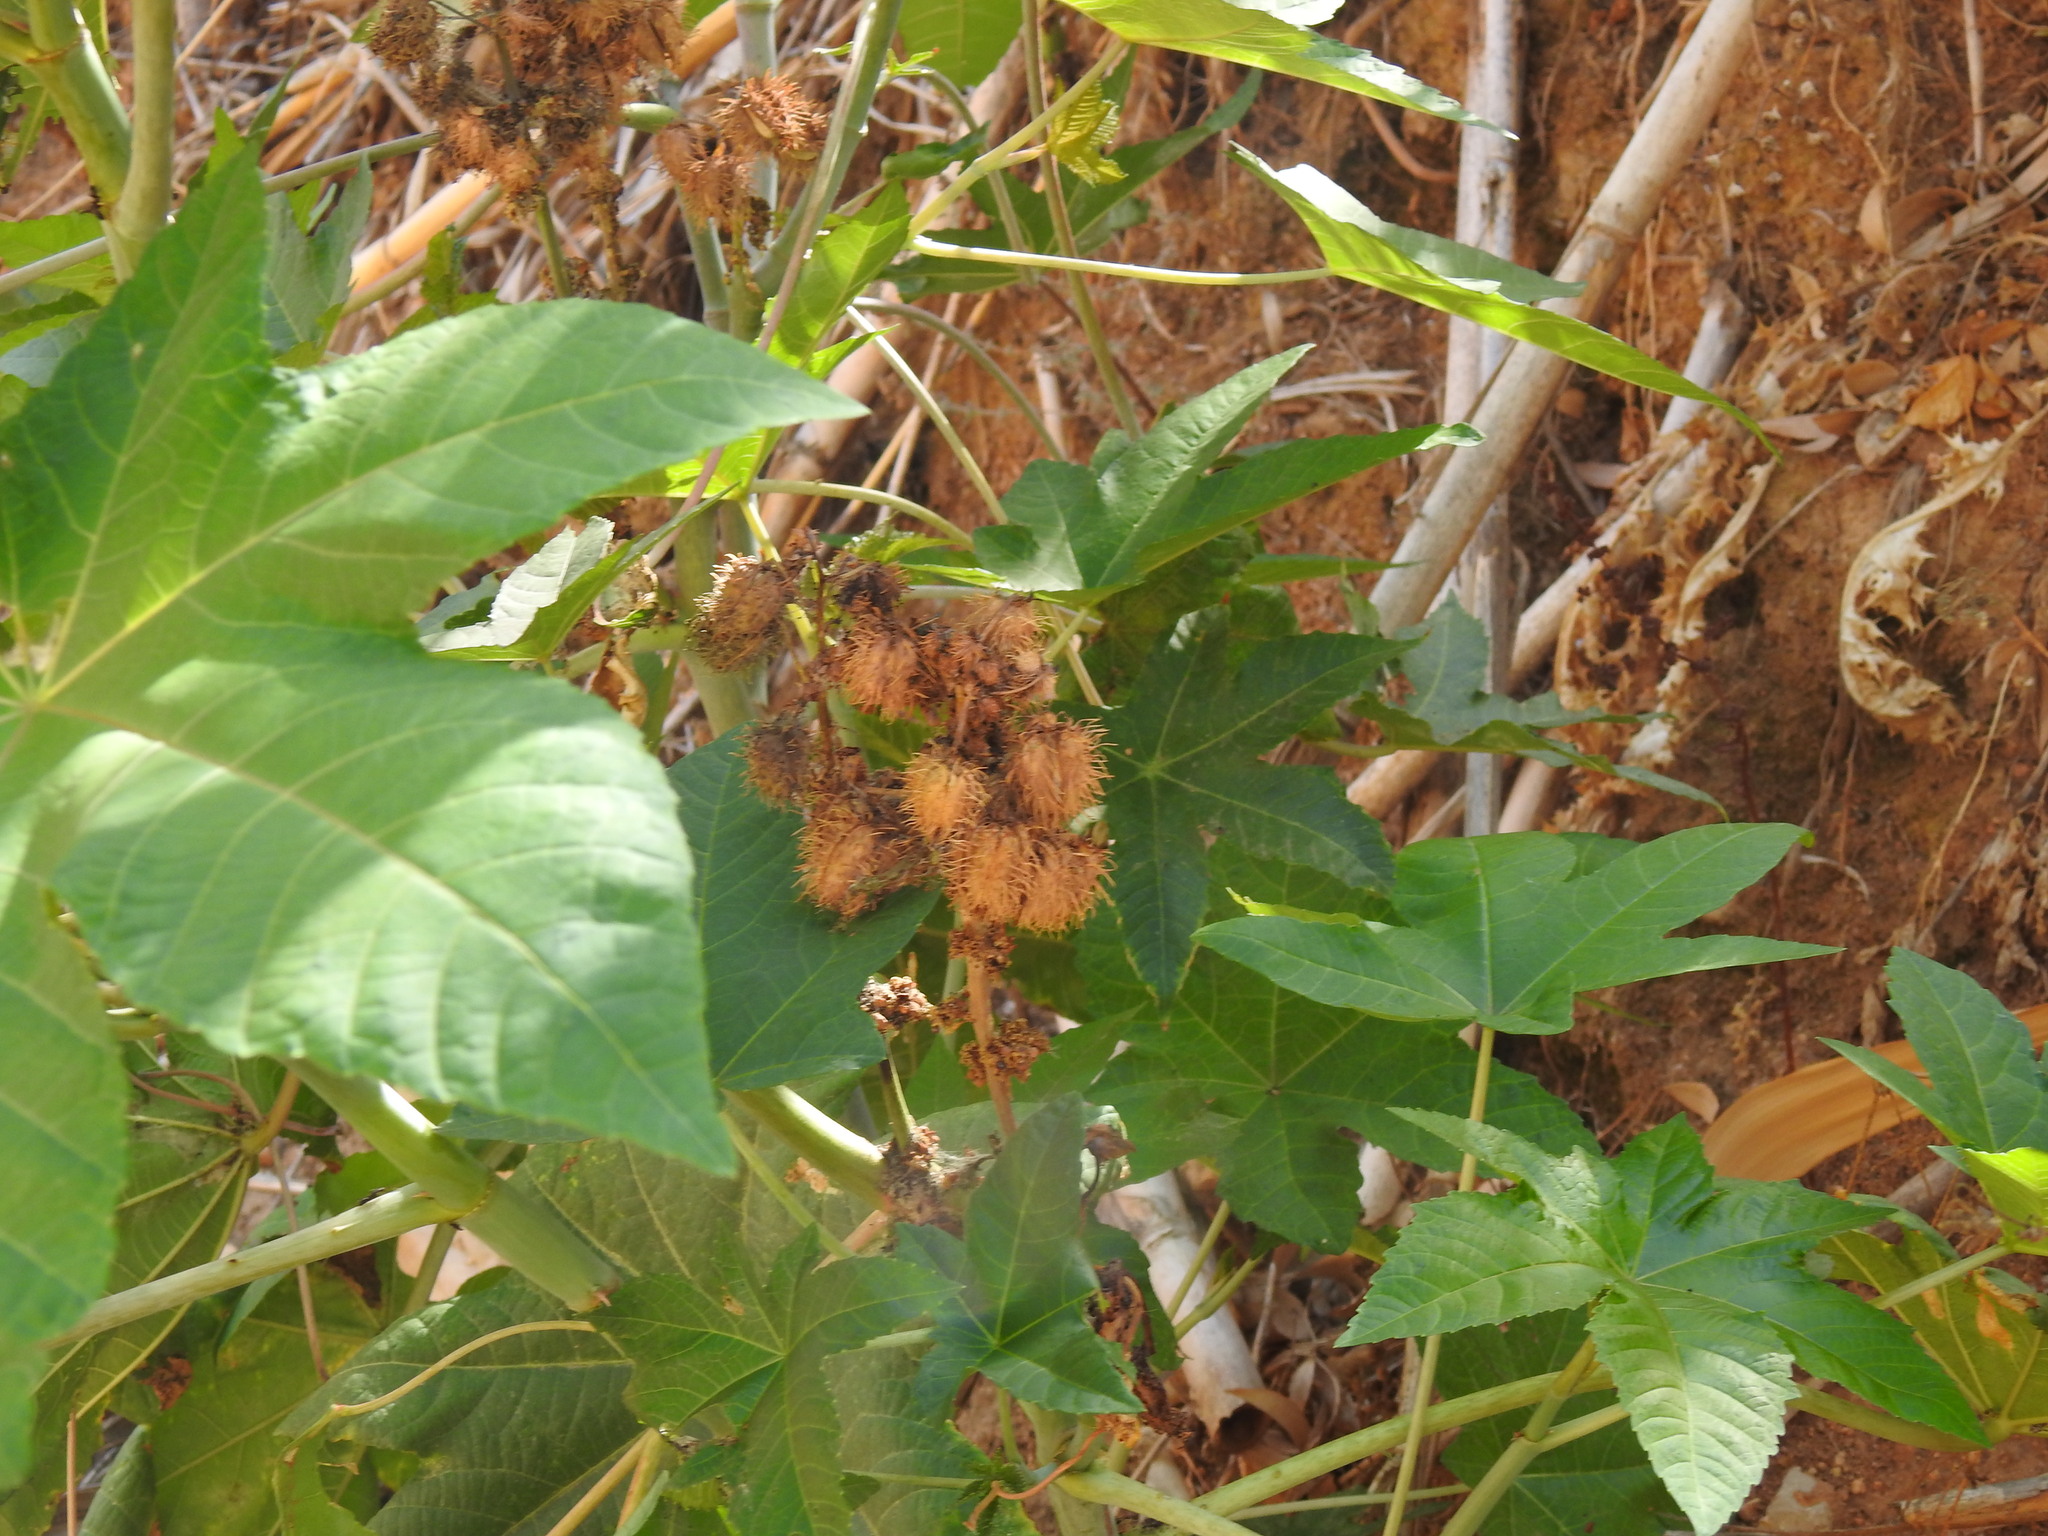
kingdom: Plantae
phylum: Tracheophyta
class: Magnoliopsida
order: Malpighiales
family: Euphorbiaceae
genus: Ricinus
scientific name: Ricinus communis
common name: Castor-oil-plant
